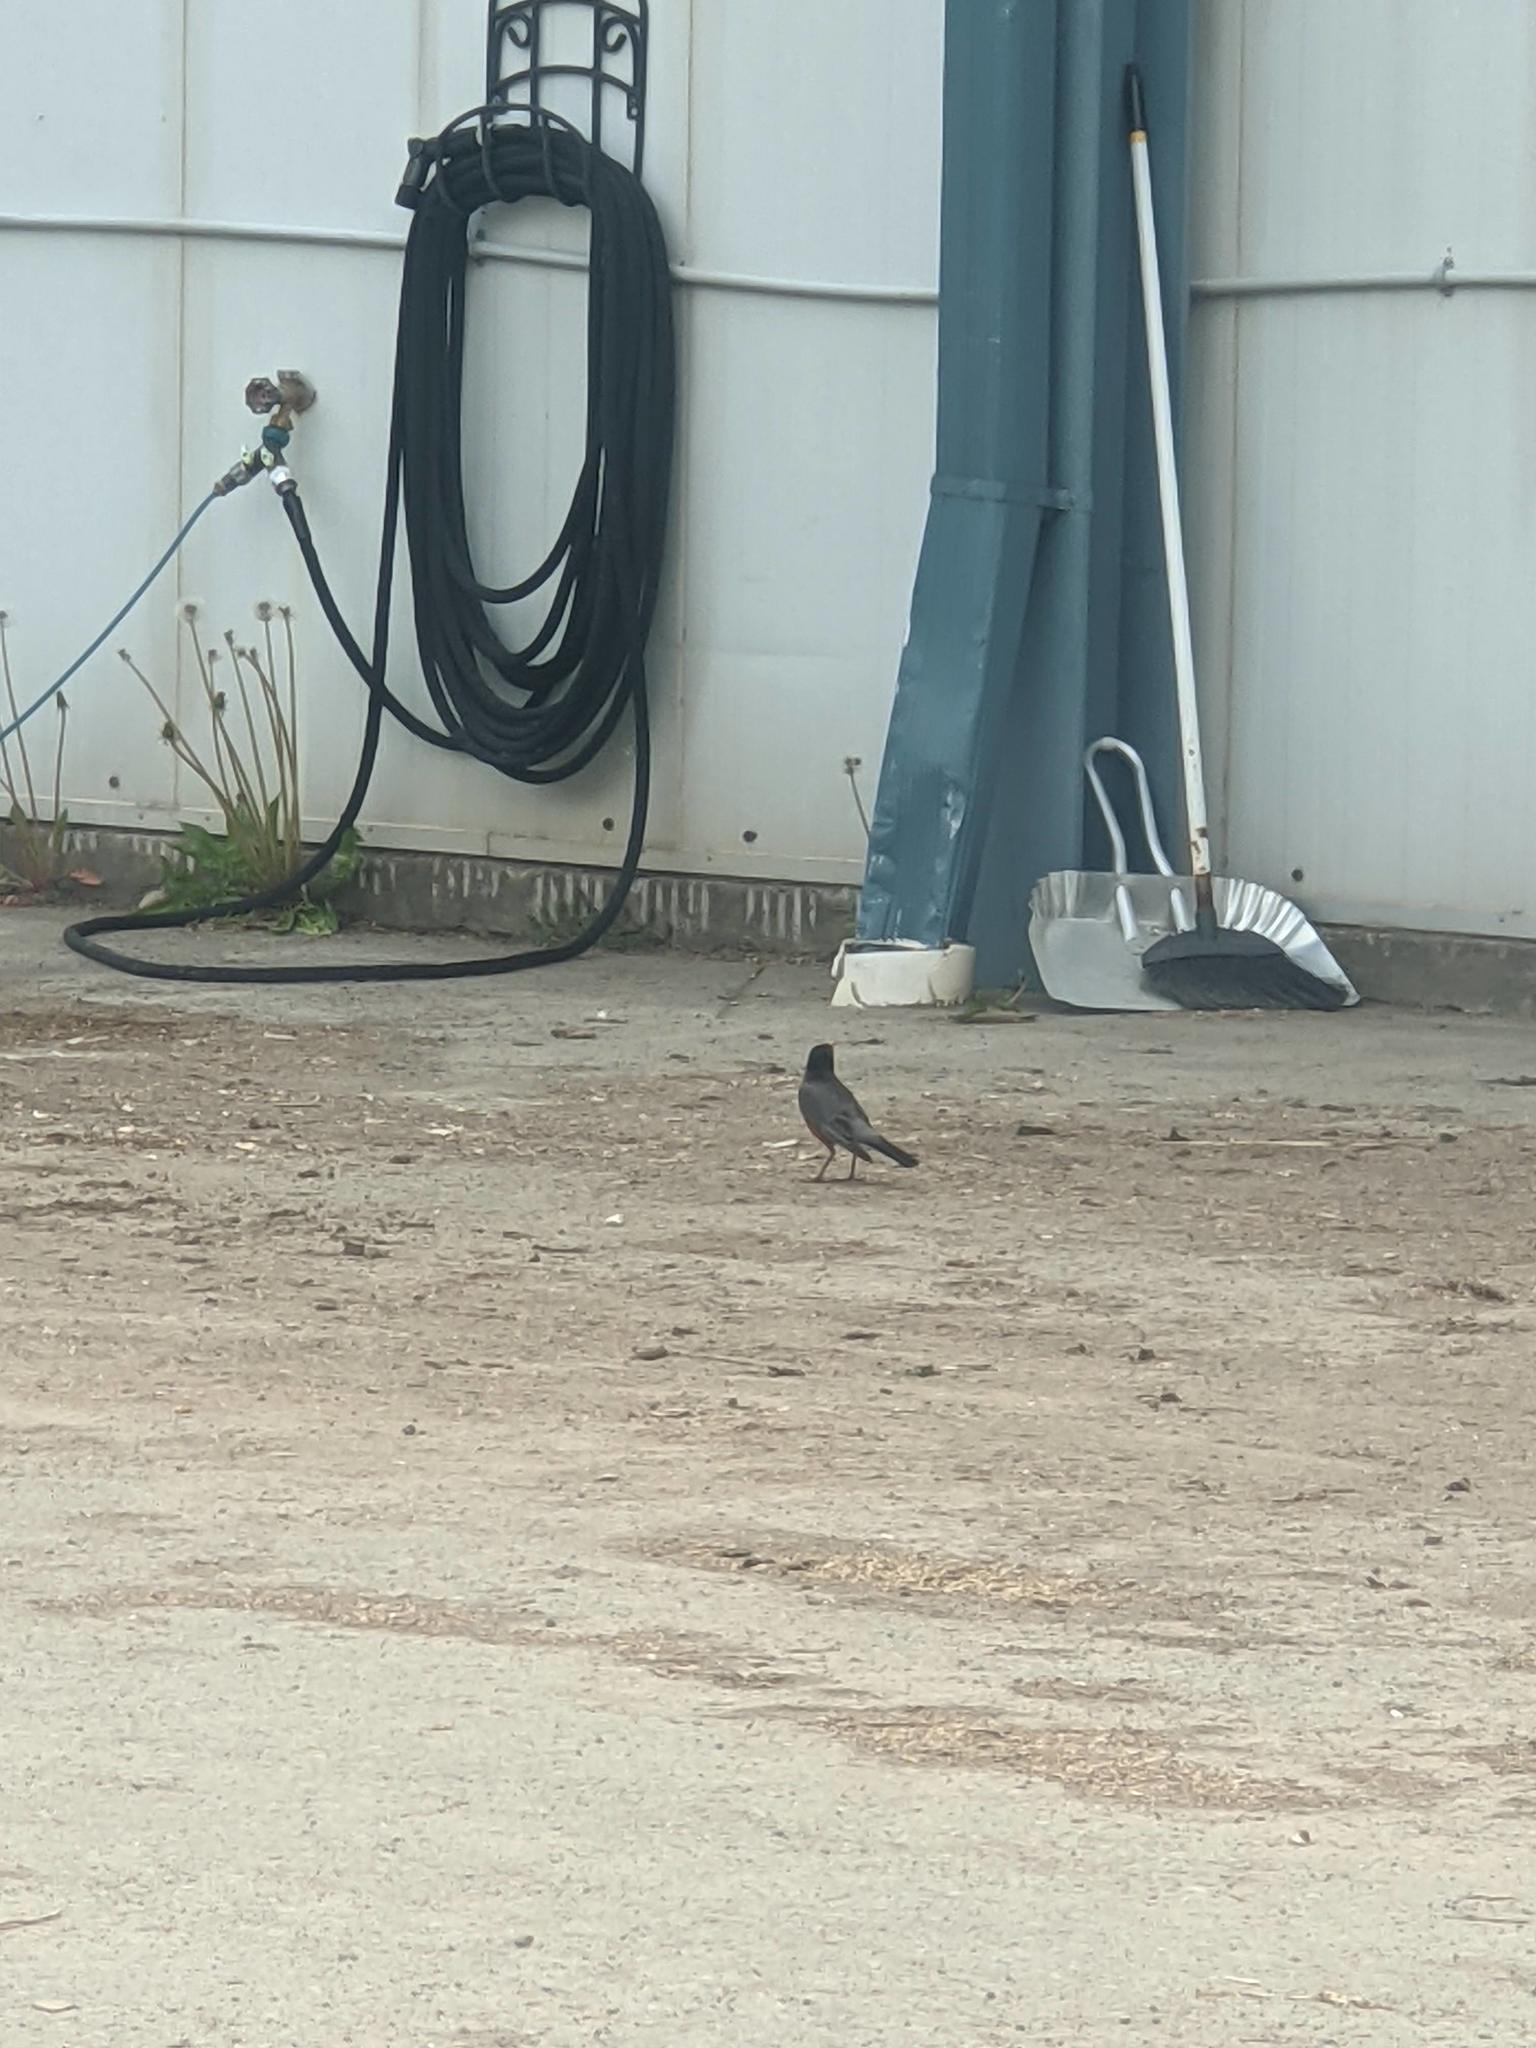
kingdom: Animalia
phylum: Chordata
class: Aves
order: Passeriformes
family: Turdidae
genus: Turdus
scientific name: Turdus migratorius
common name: American robin
